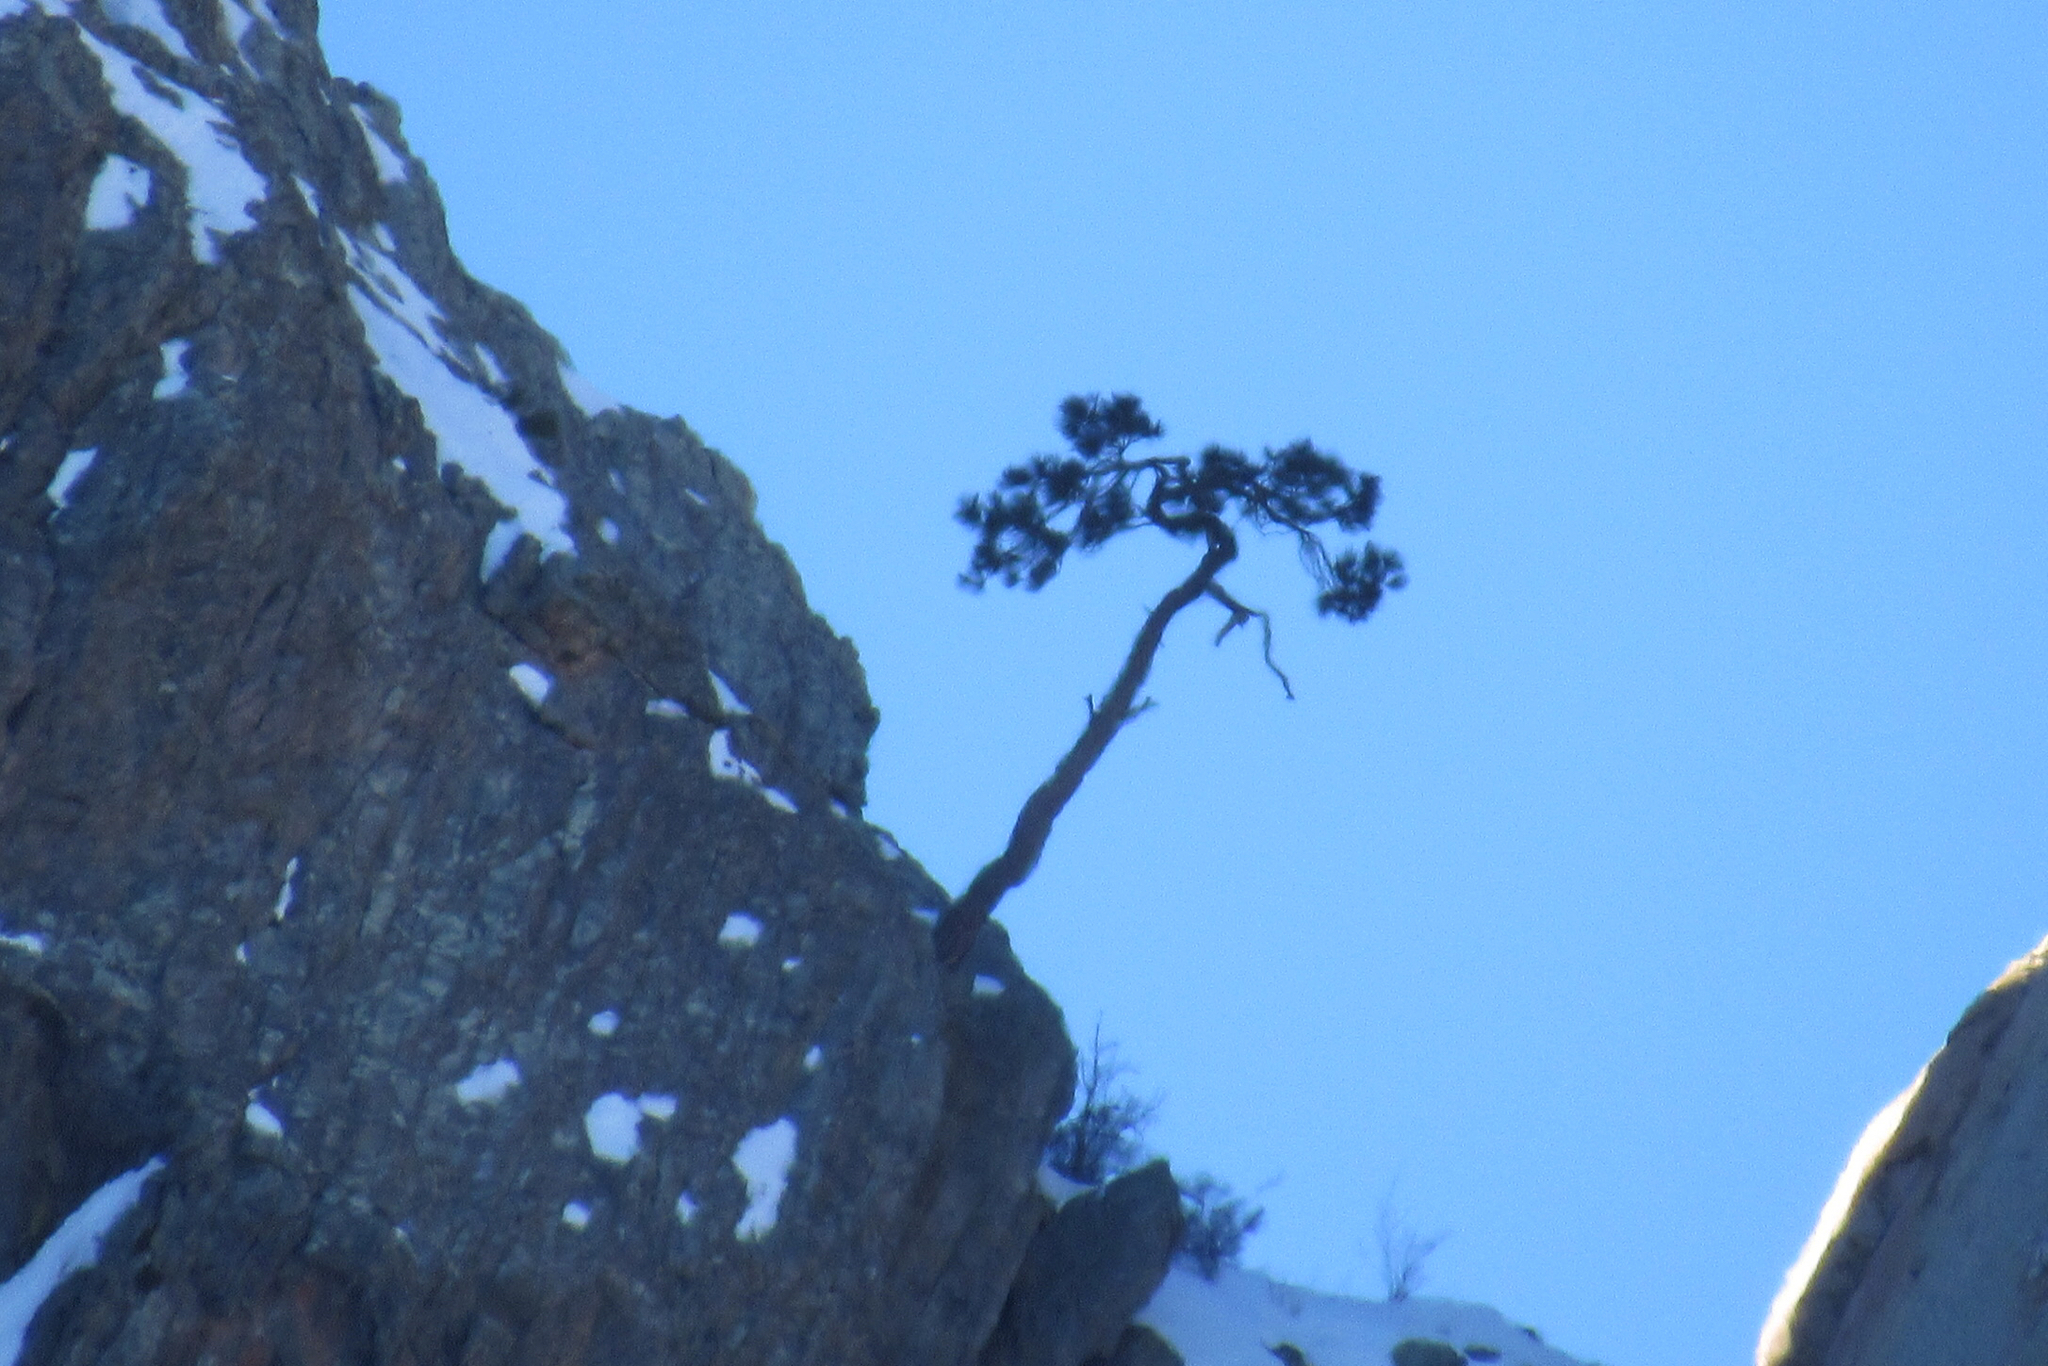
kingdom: Plantae
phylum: Tracheophyta
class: Pinopsida
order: Pinales
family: Pinaceae
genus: Pinus
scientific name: Pinus ponderosa
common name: Western yellow-pine
